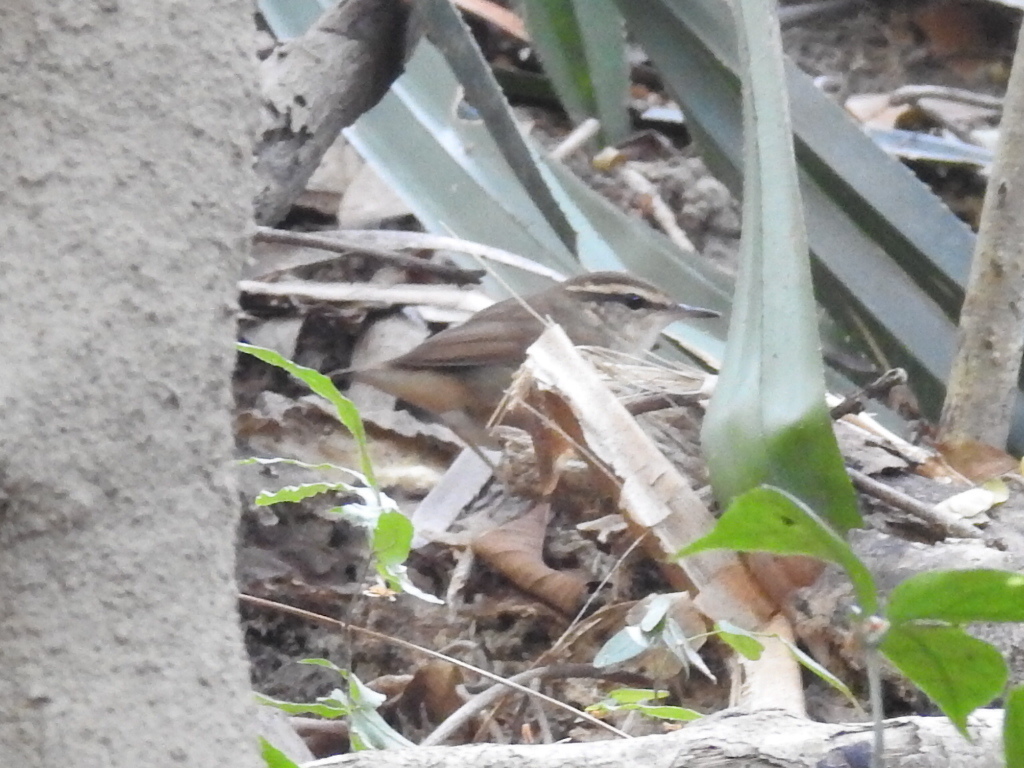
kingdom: Animalia
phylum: Chordata
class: Aves
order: Passeriformes
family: Cettiidae
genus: Urosphena
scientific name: Urosphena squameiceps
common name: Asian stubtail
